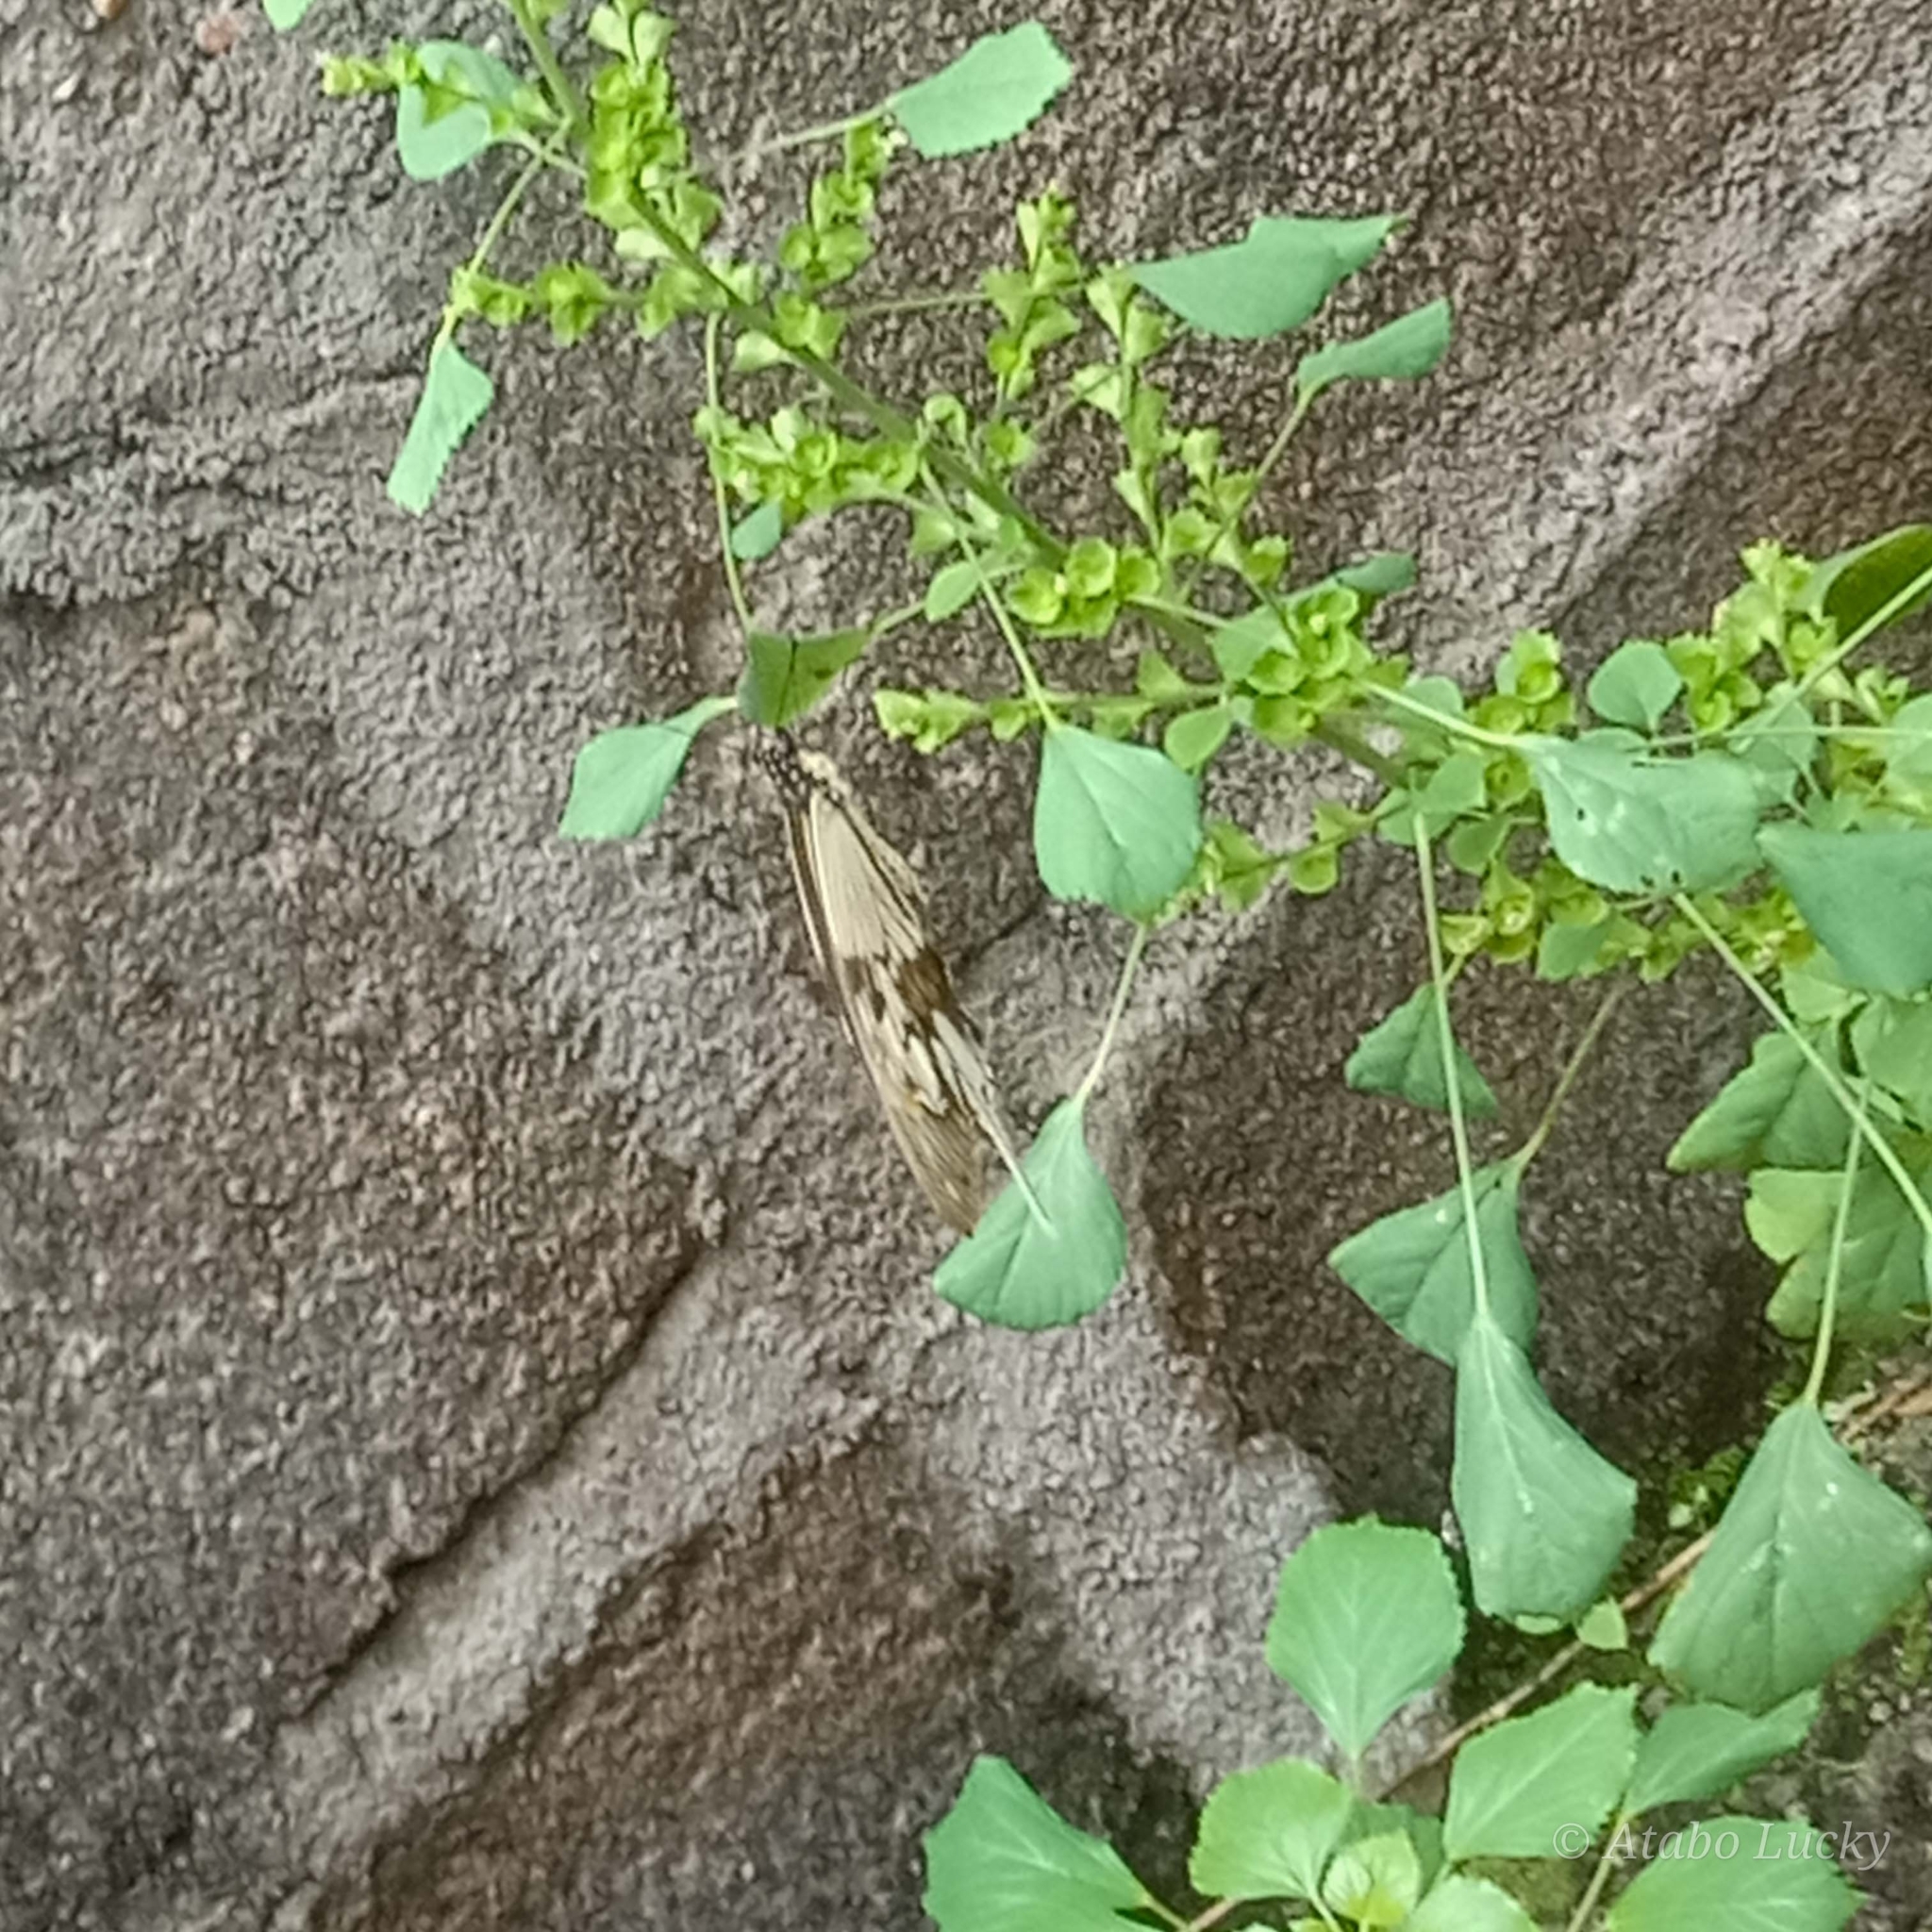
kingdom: Animalia
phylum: Arthropoda
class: Insecta
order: Lepidoptera
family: Papilionidae
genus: Papilio
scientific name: Papilio dardanus
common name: Flying handkerchief
